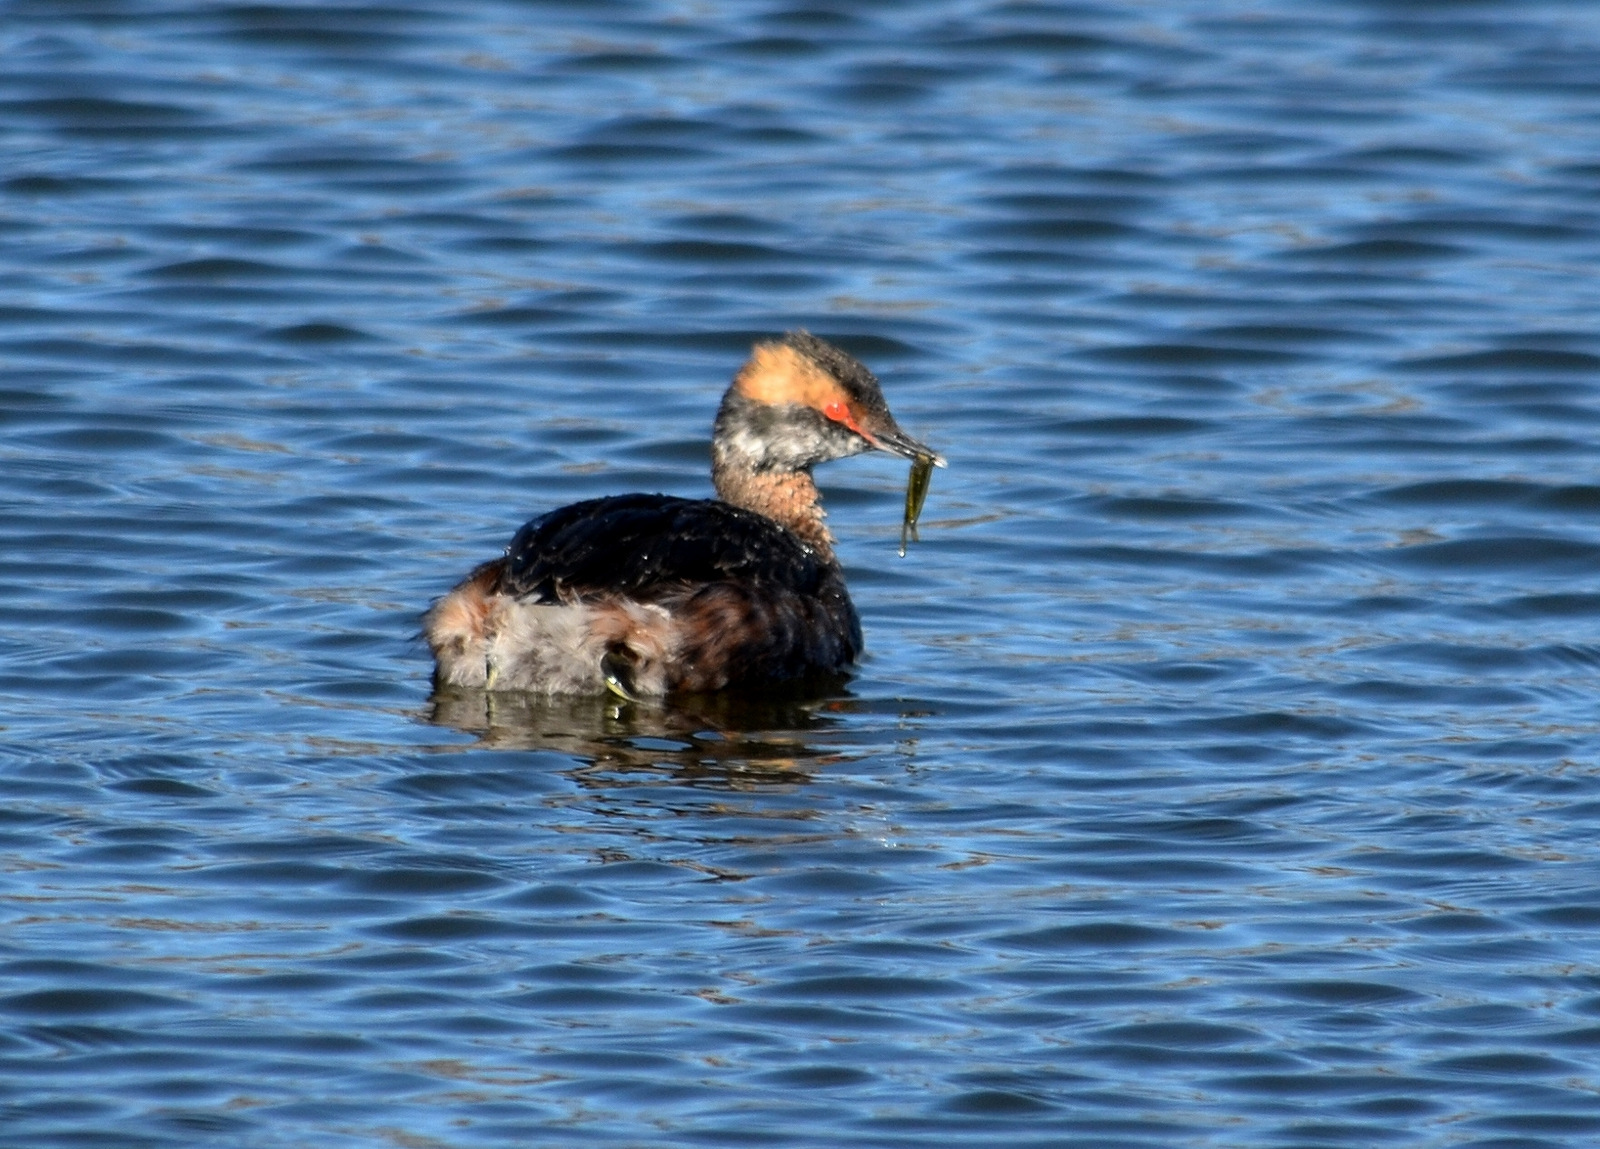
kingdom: Animalia
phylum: Chordata
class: Aves
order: Podicipediformes
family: Podicipedidae
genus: Podiceps
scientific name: Podiceps auritus
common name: Horned grebe
